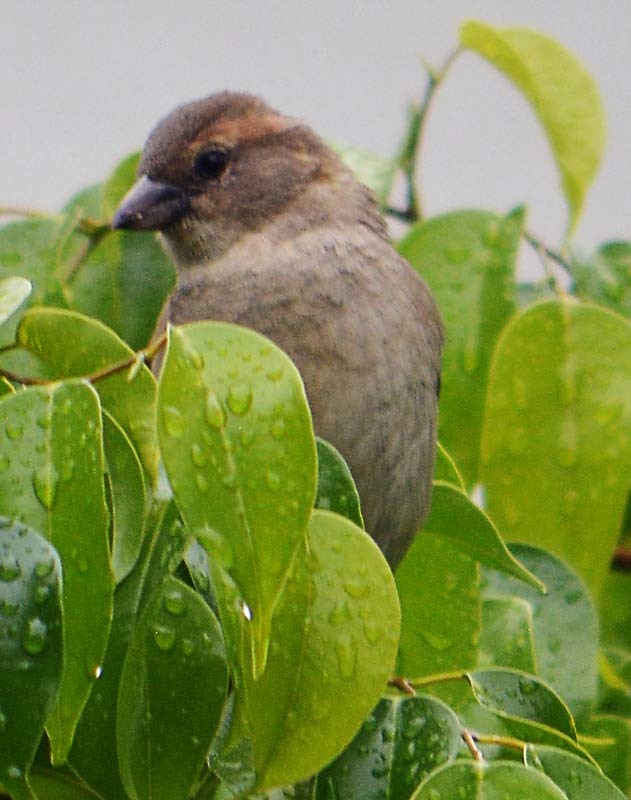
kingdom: Animalia
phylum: Chordata
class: Aves
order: Passeriformes
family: Passeridae
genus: Passer
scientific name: Passer domesticus
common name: House sparrow
